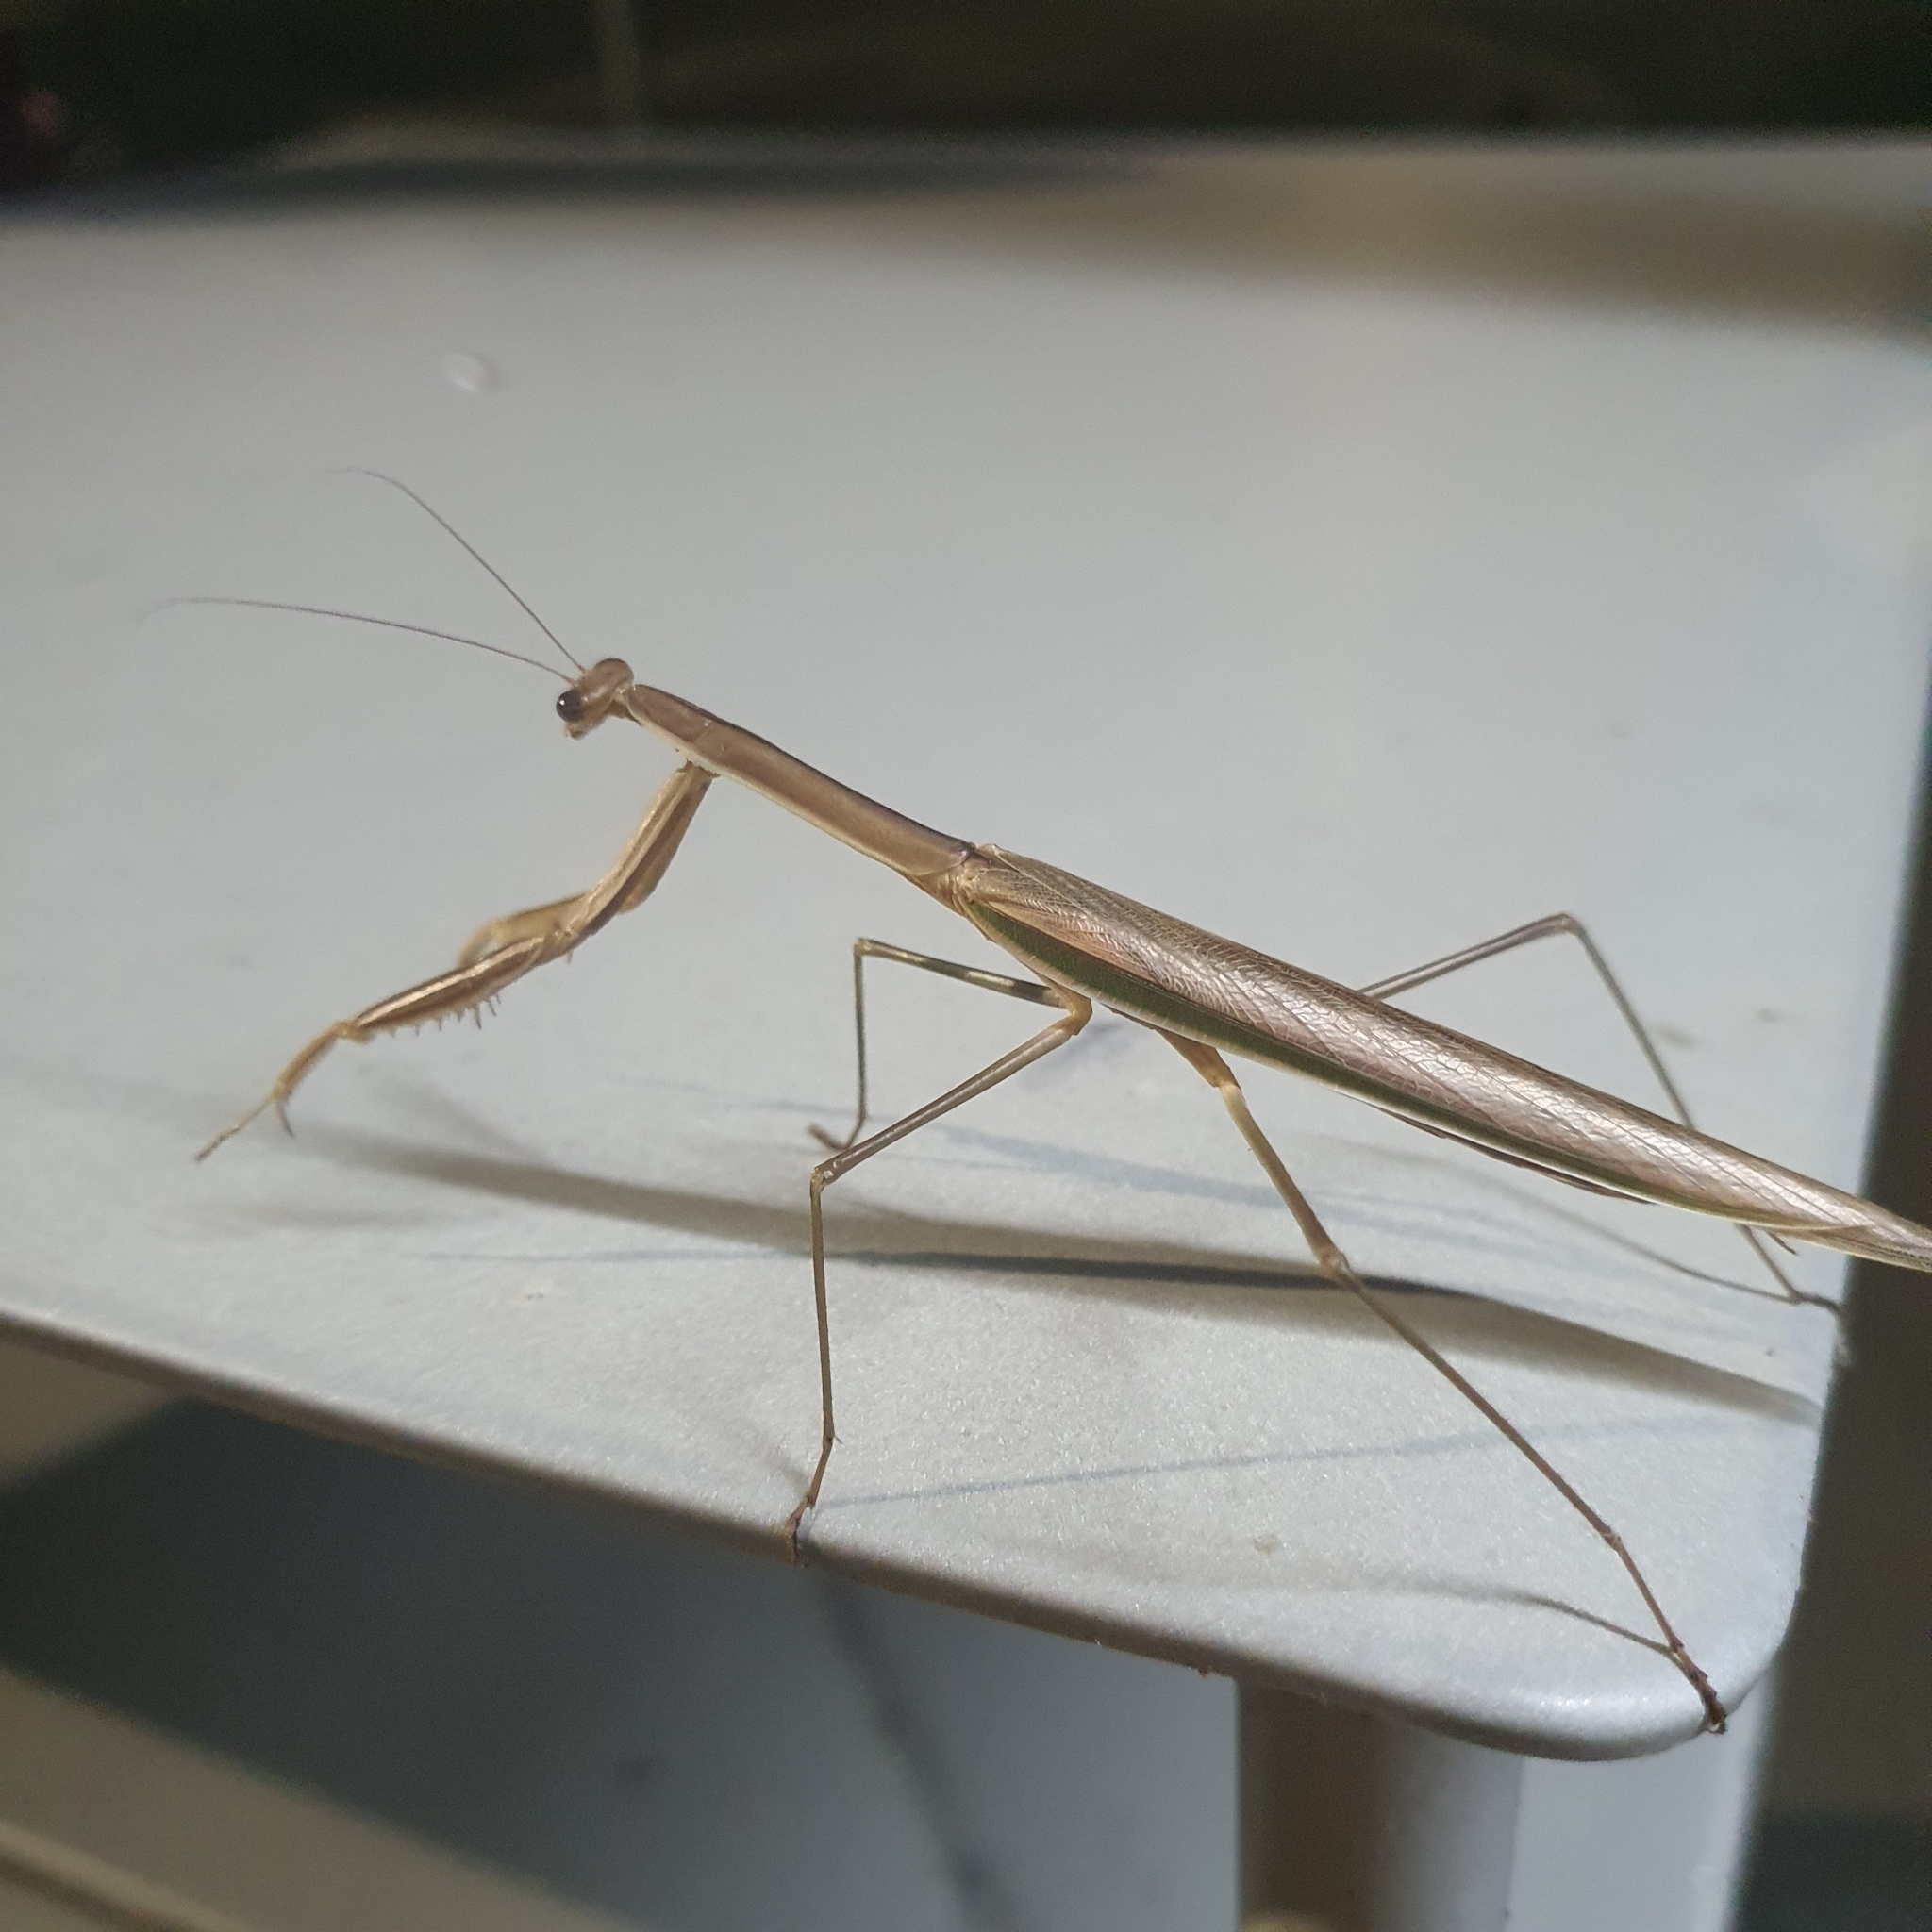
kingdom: Animalia
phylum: Arthropoda
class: Insecta
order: Mantodea
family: Mantidae
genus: Tenodera
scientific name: Tenodera australasiae
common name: Purple-winged mantis
